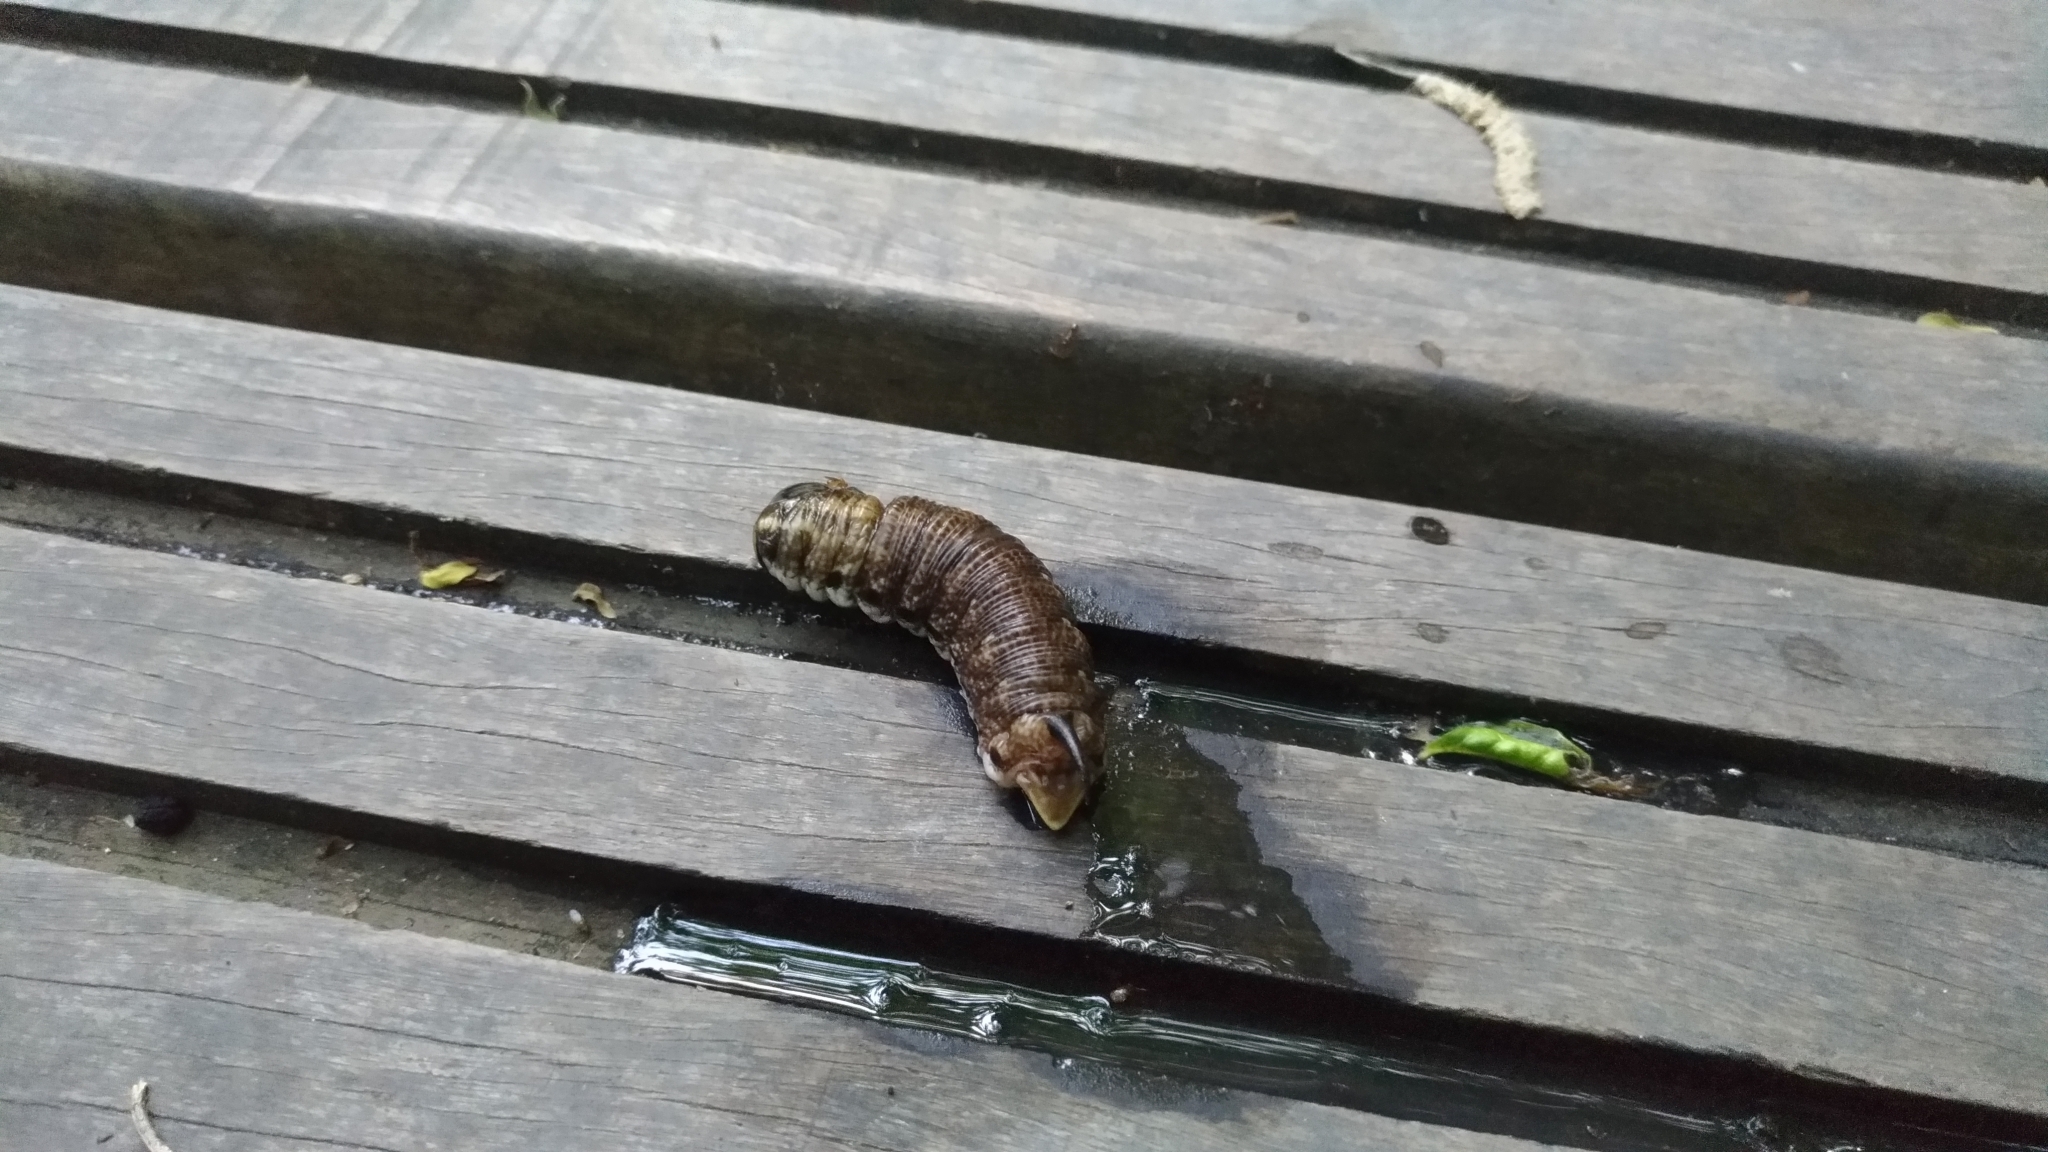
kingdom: Animalia
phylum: Arthropoda
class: Insecta
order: Lepidoptera
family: Sphingidae
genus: Agrius
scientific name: Agrius convolvuli
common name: Convolvulus hawkmoth
